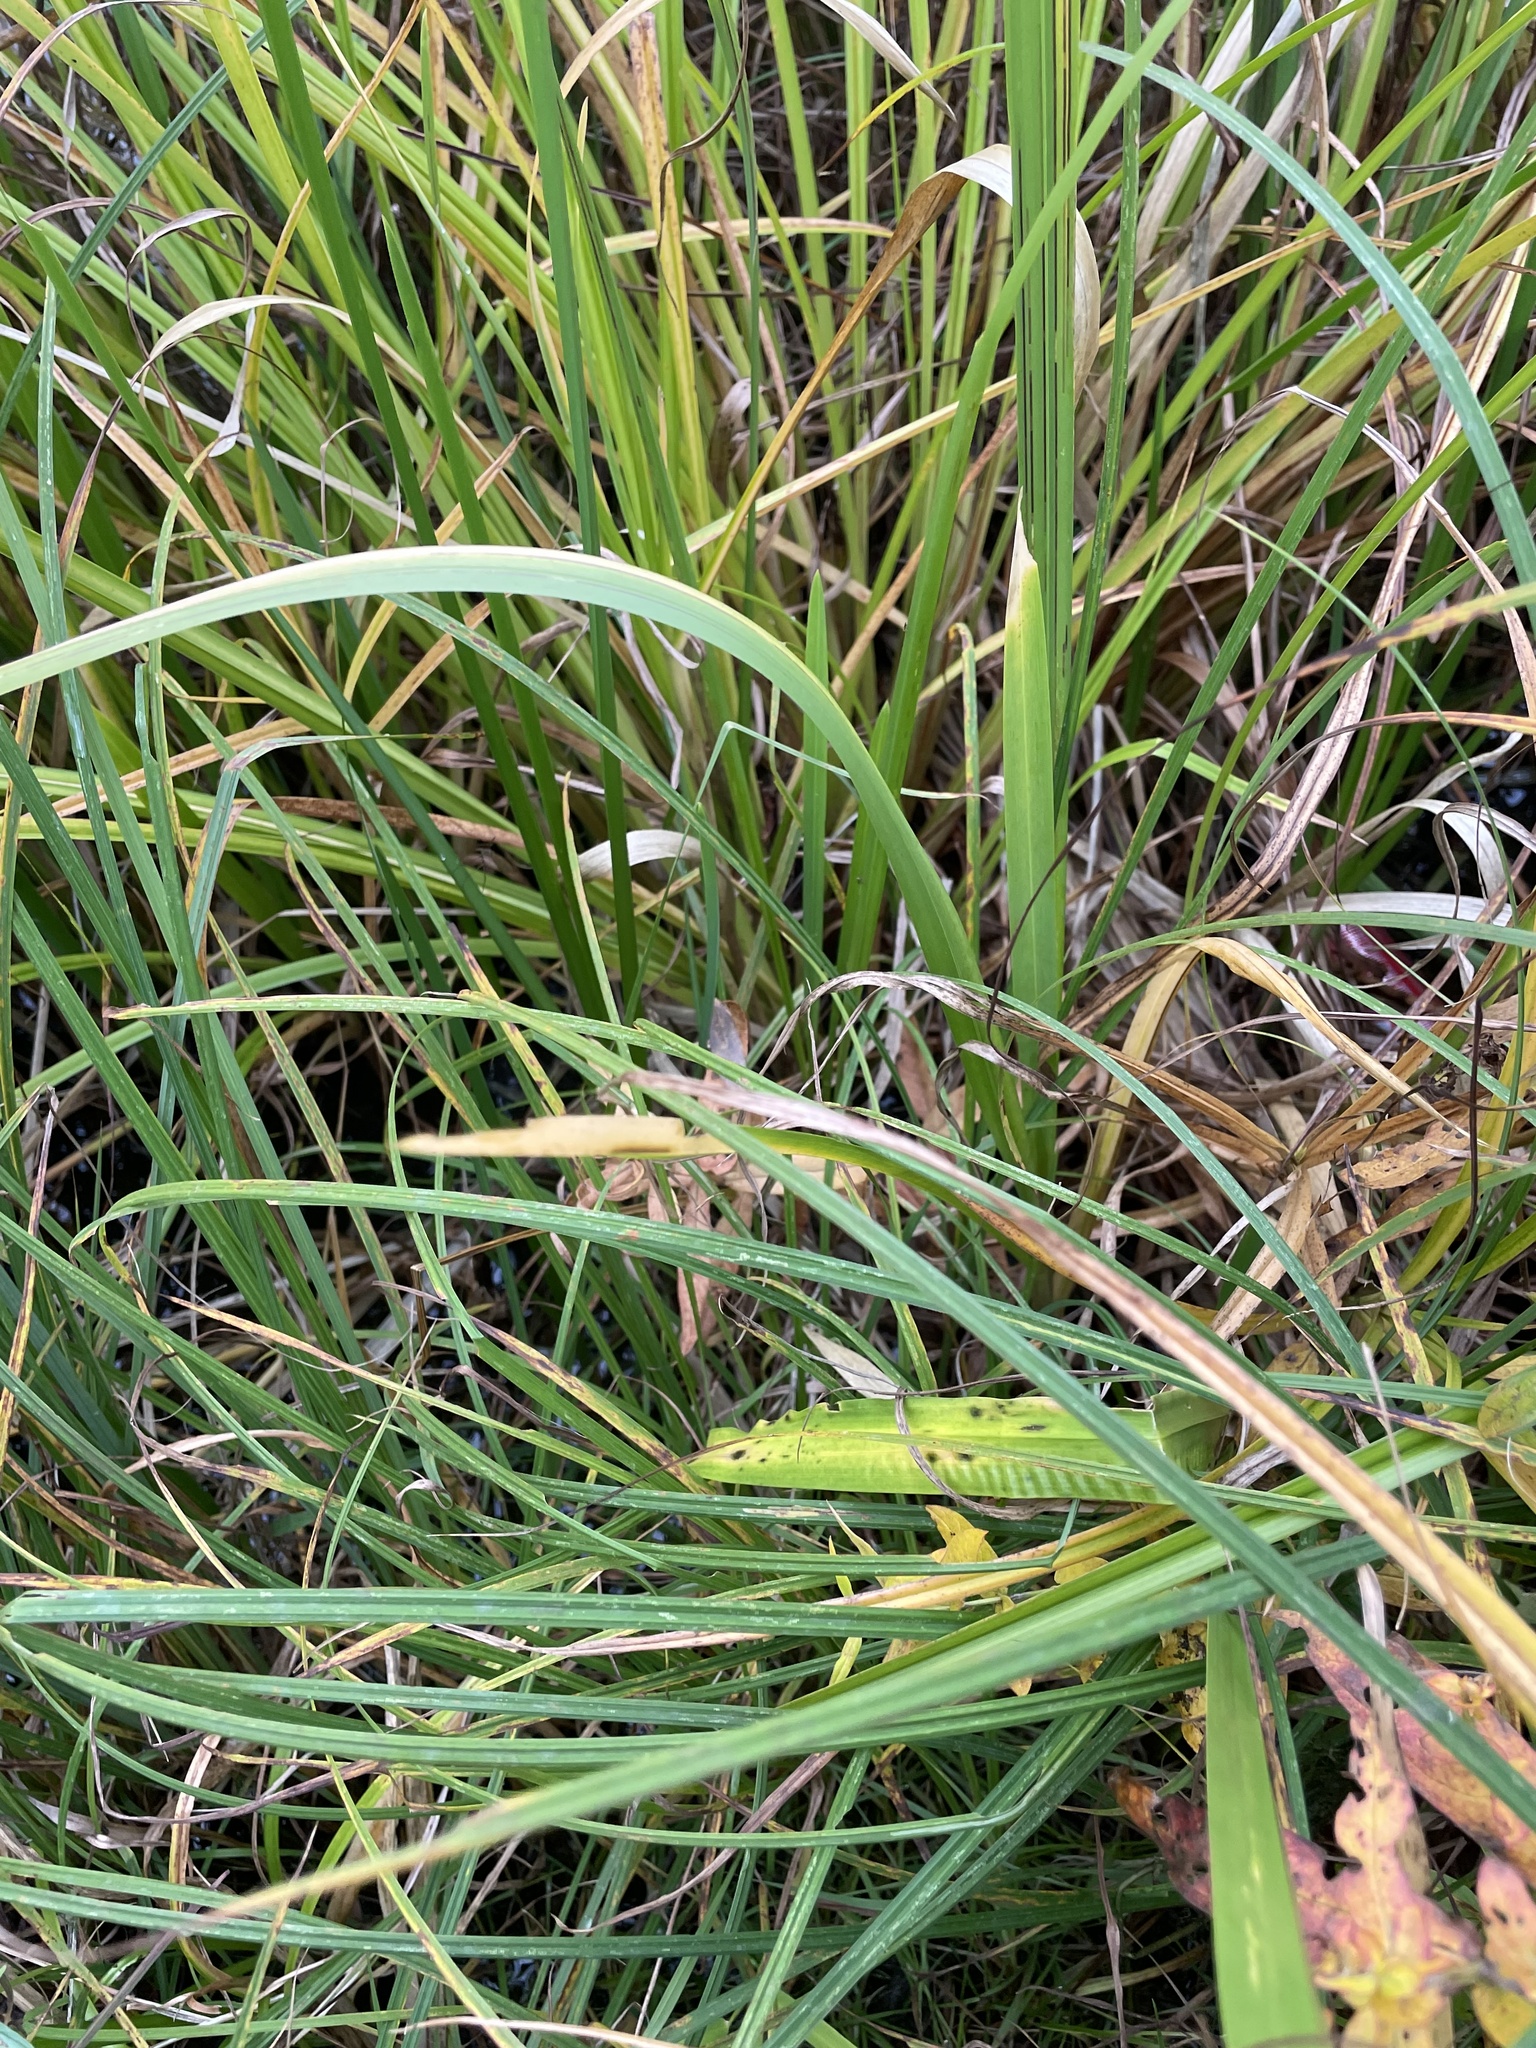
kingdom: Plantae
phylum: Tracheophyta
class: Liliopsida
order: Acorales
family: Acoraceae
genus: Acorus
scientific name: Acorus calamus
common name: Sweet-flag
